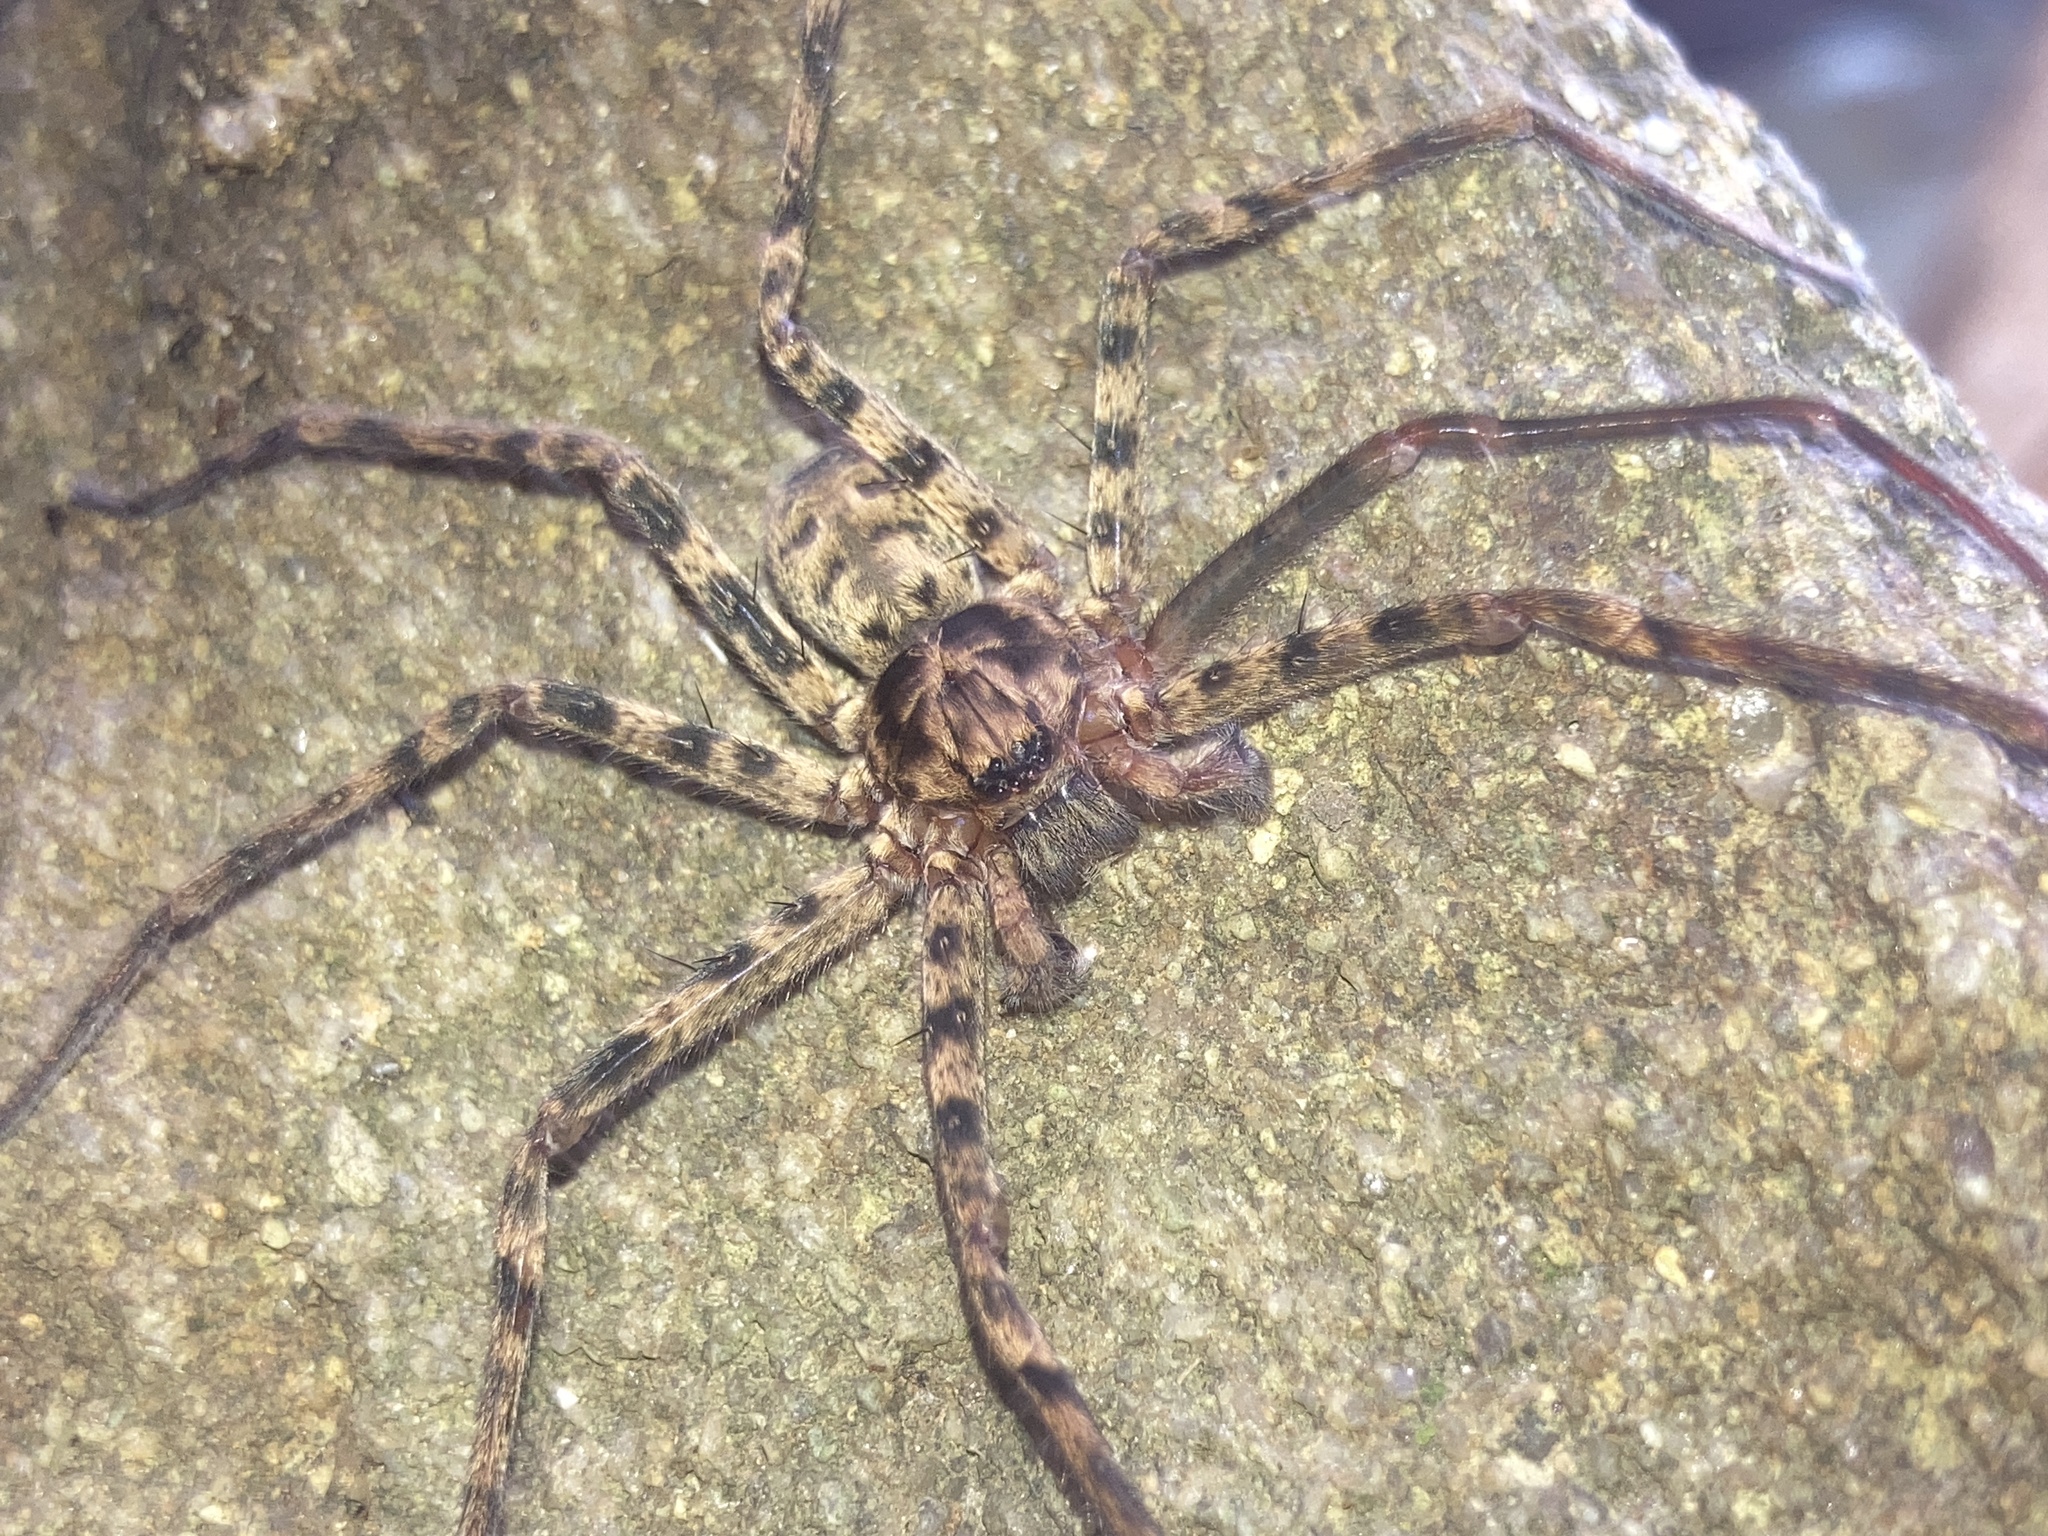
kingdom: Animalia
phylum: Arthropoda
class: Arachnida
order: Araneae
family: Sparassidae
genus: Heteropoda
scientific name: Heteropoda longipes
